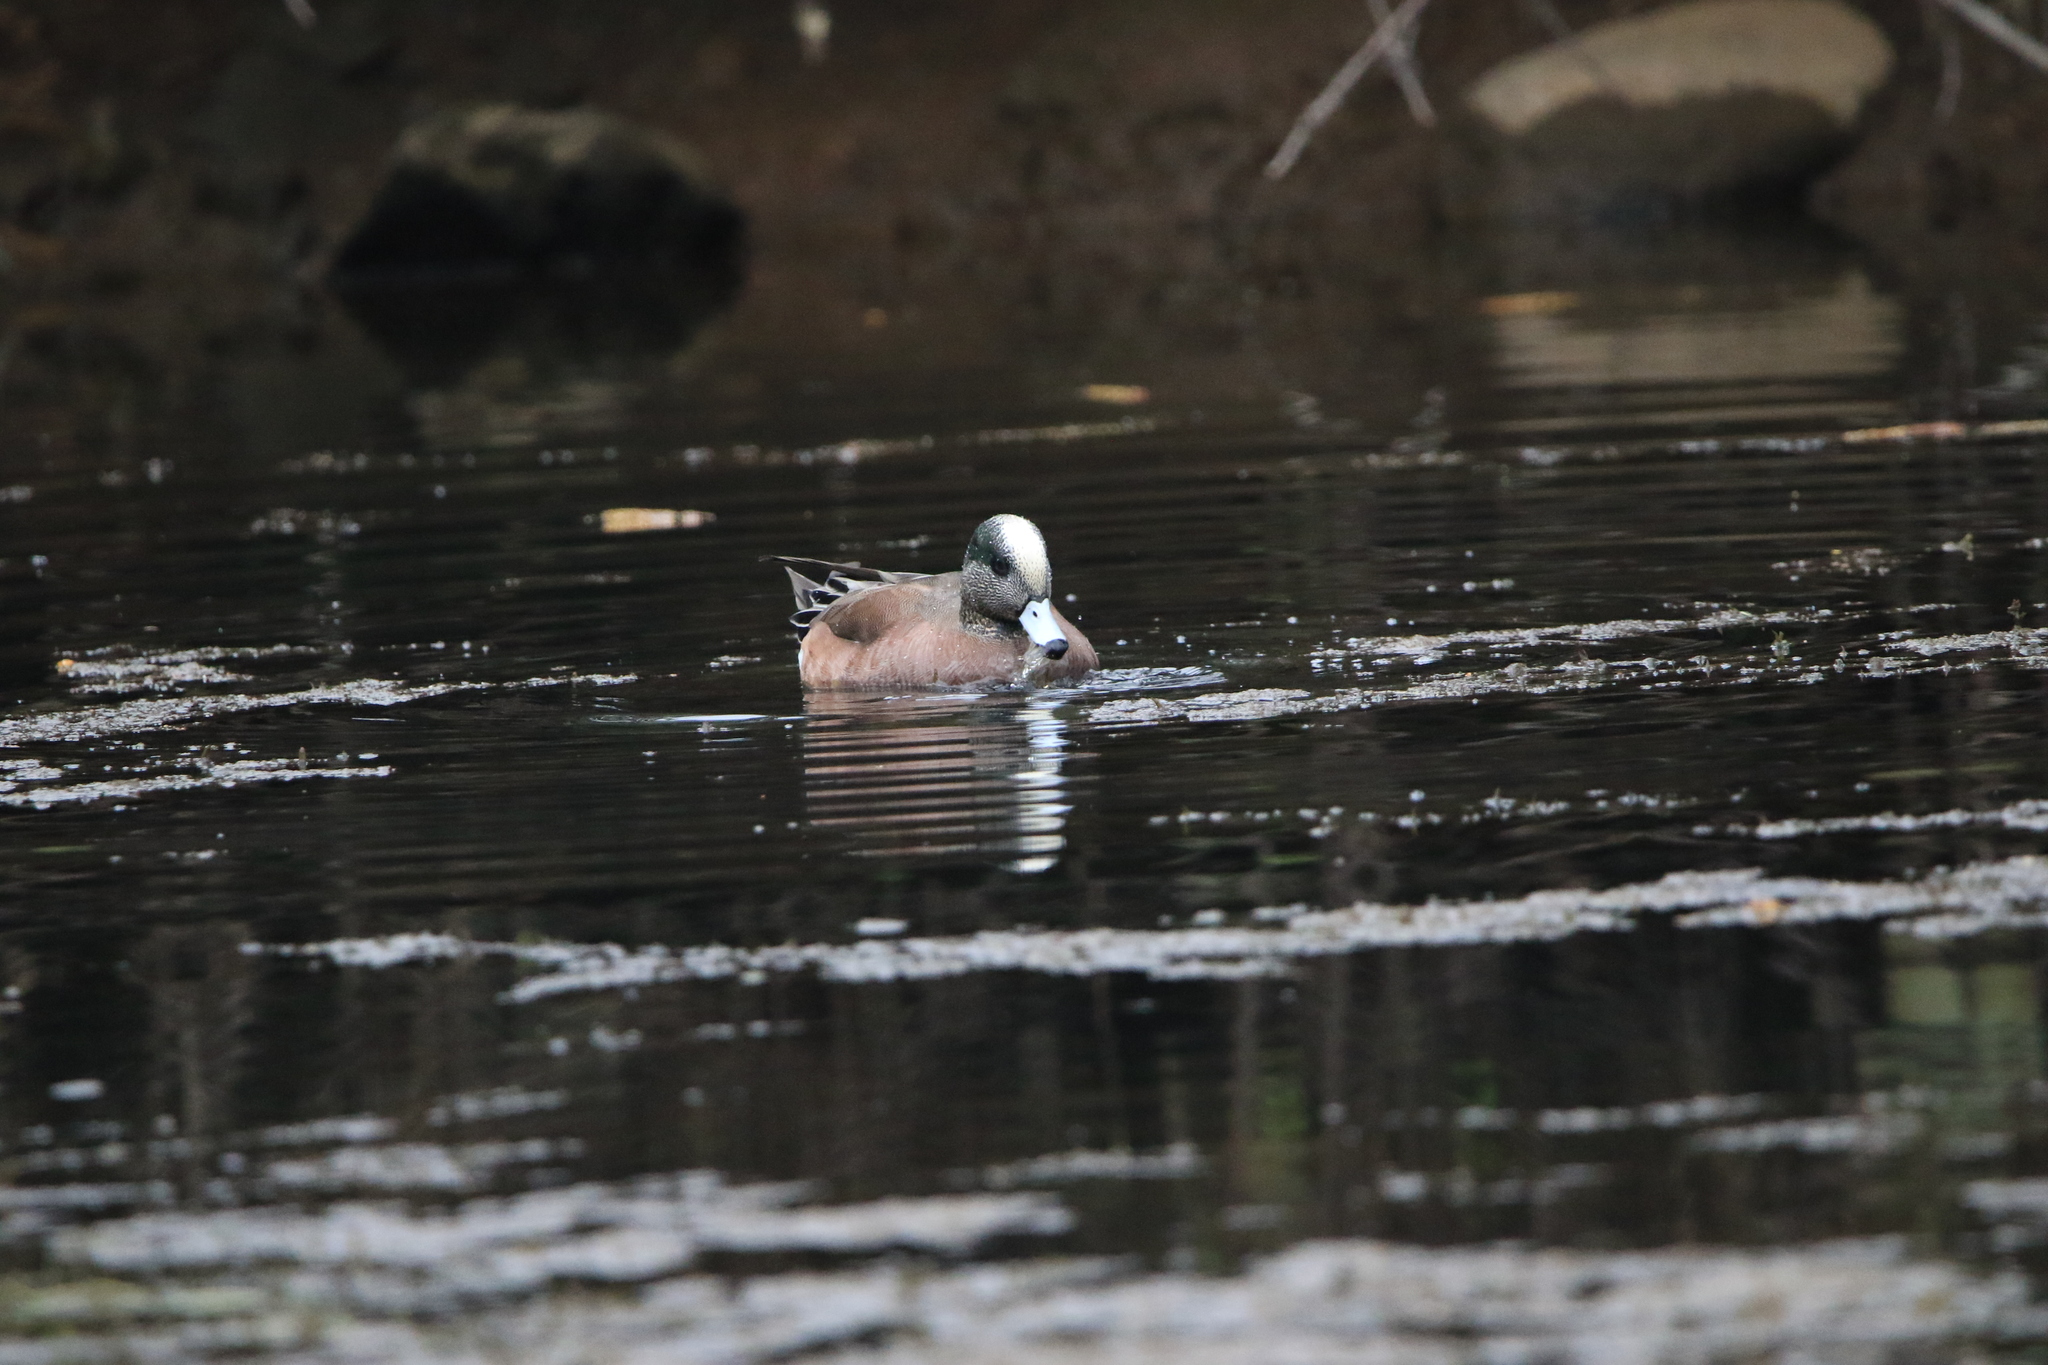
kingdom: Animalia
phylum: Chordata
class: Aves
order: Anseriformes
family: Anatidae
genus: Mareca
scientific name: Mareca americana
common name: American wigeon
